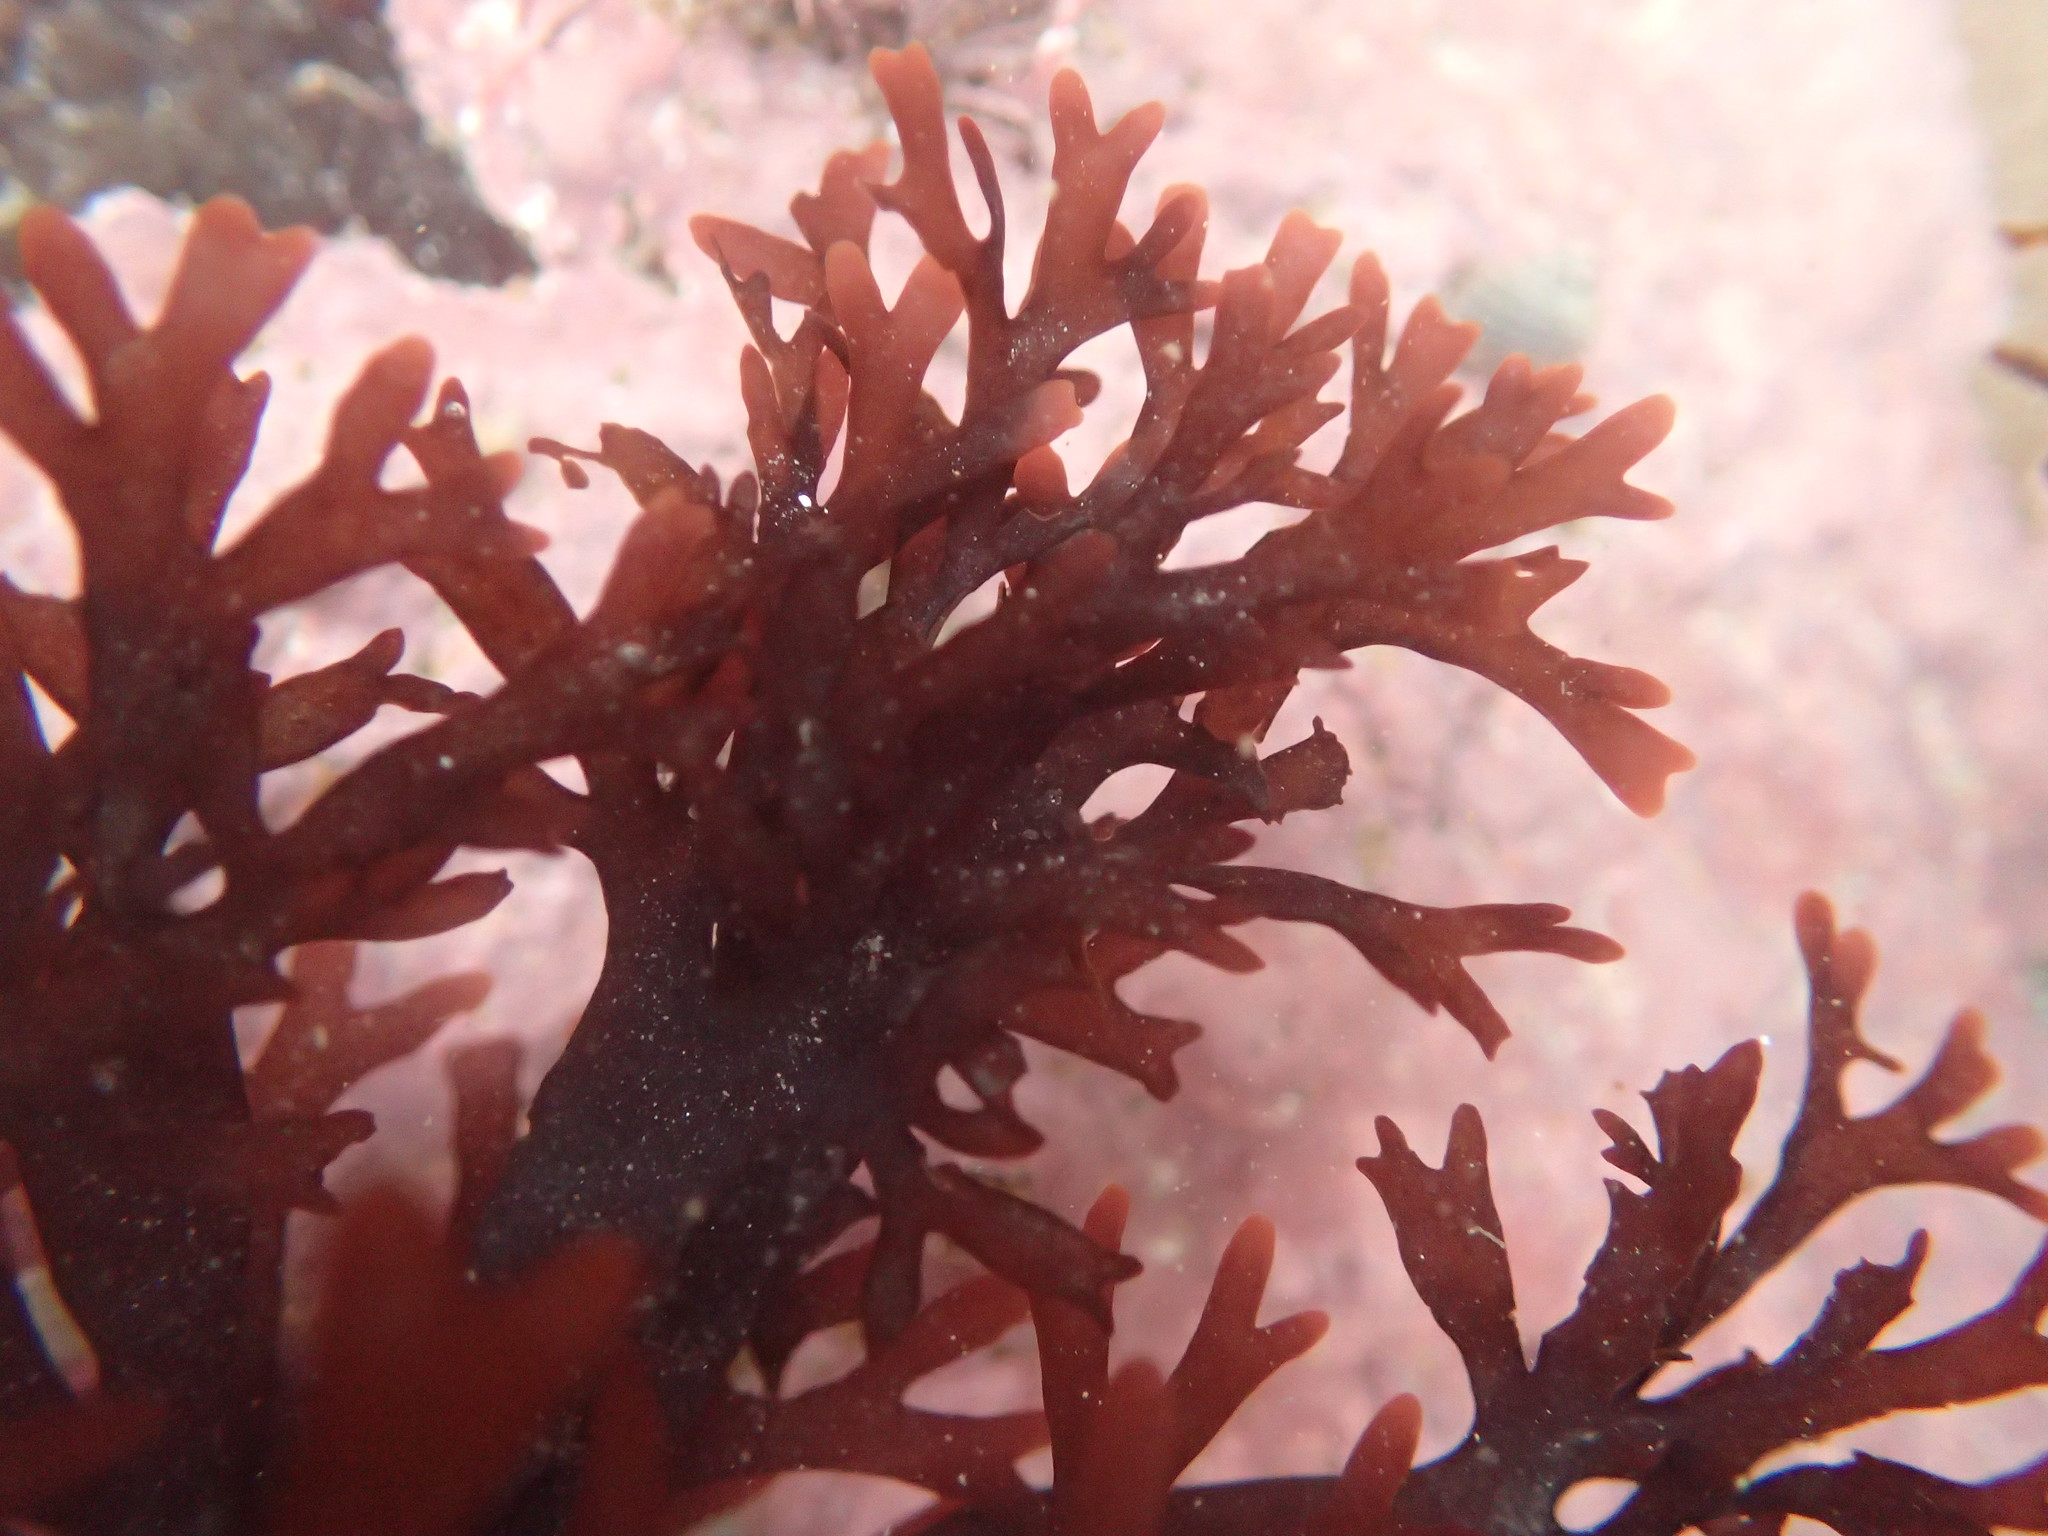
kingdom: Plantae
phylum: Rhodophyta
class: Florideophyceae
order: Gigartinales
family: Gigartinaceae
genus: Chondrus
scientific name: Chondrus crispus
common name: Carrageen
